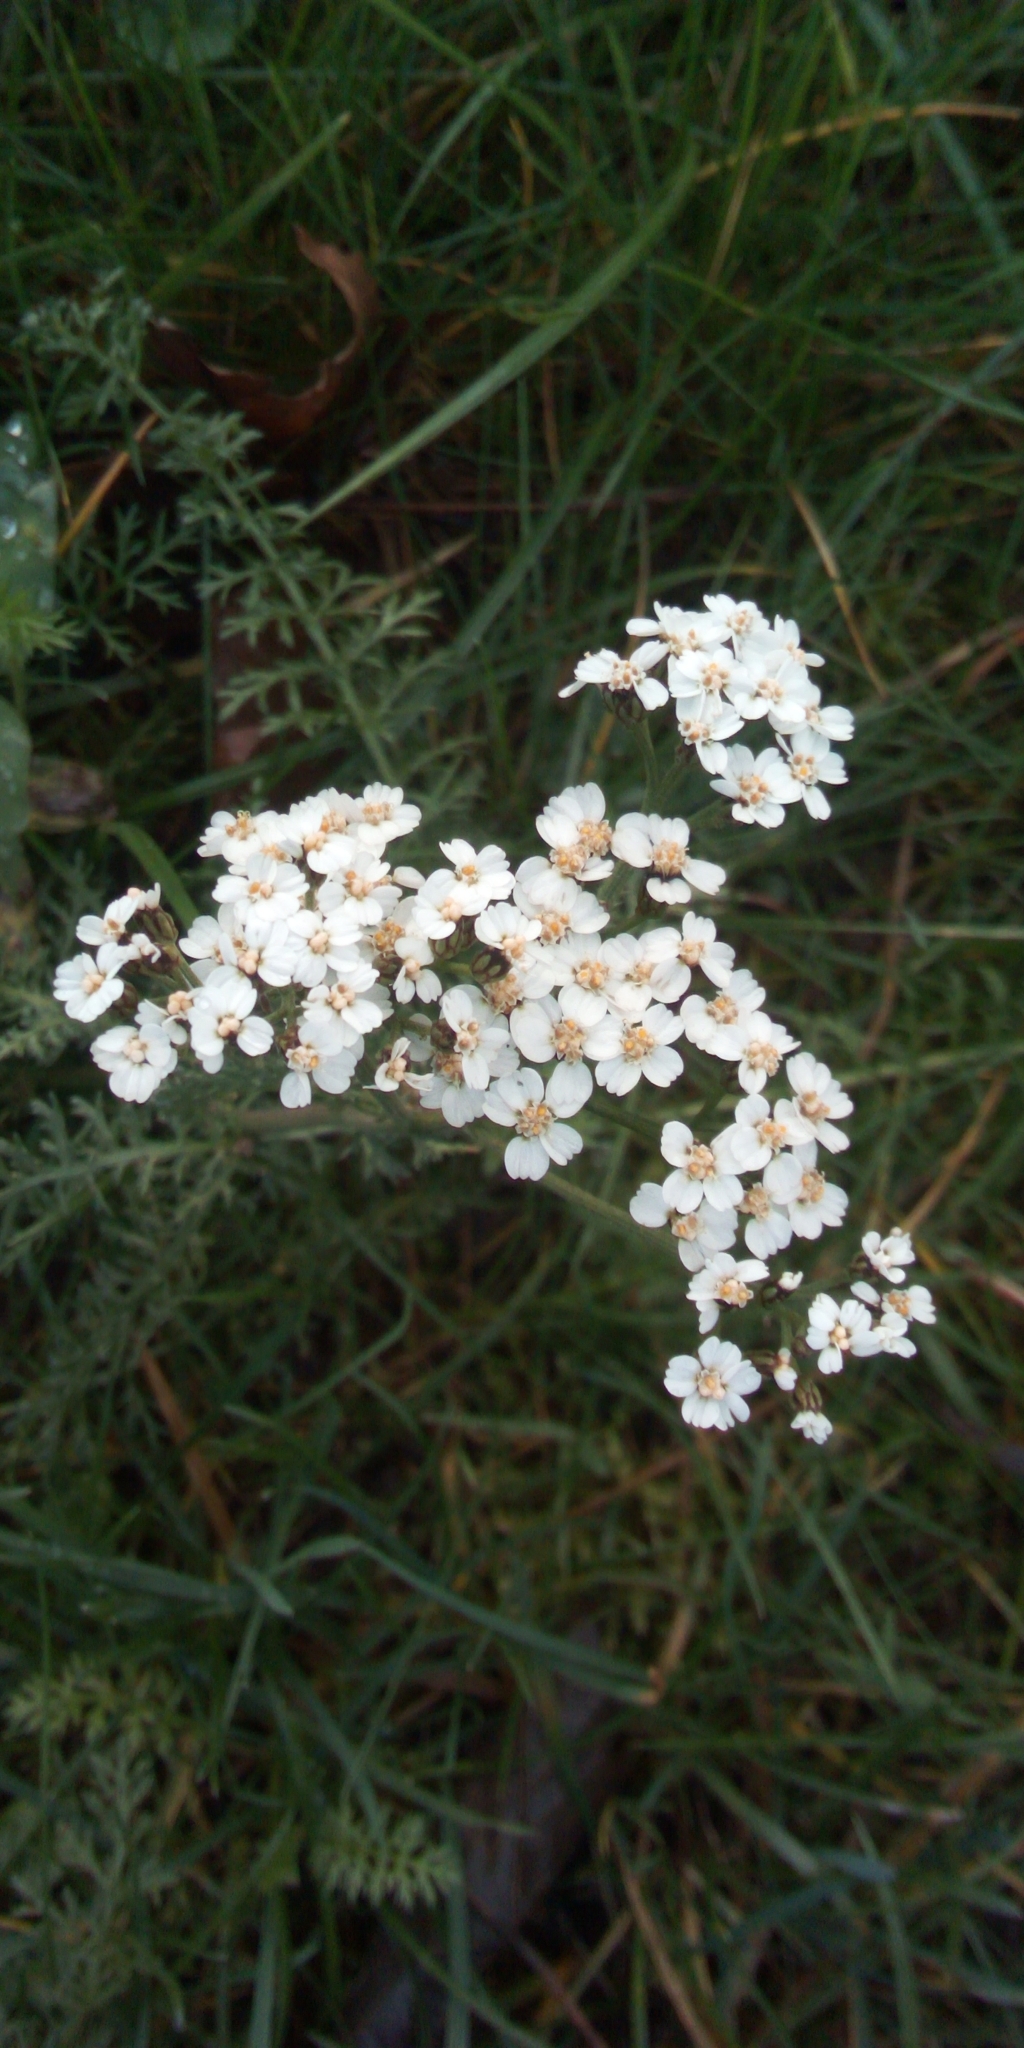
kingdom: Plantae
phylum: Tracheophyta
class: Magnoliopsida
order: Asterales
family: Asteraceae
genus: Achillea
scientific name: Achillea millefolium
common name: Yarrow
